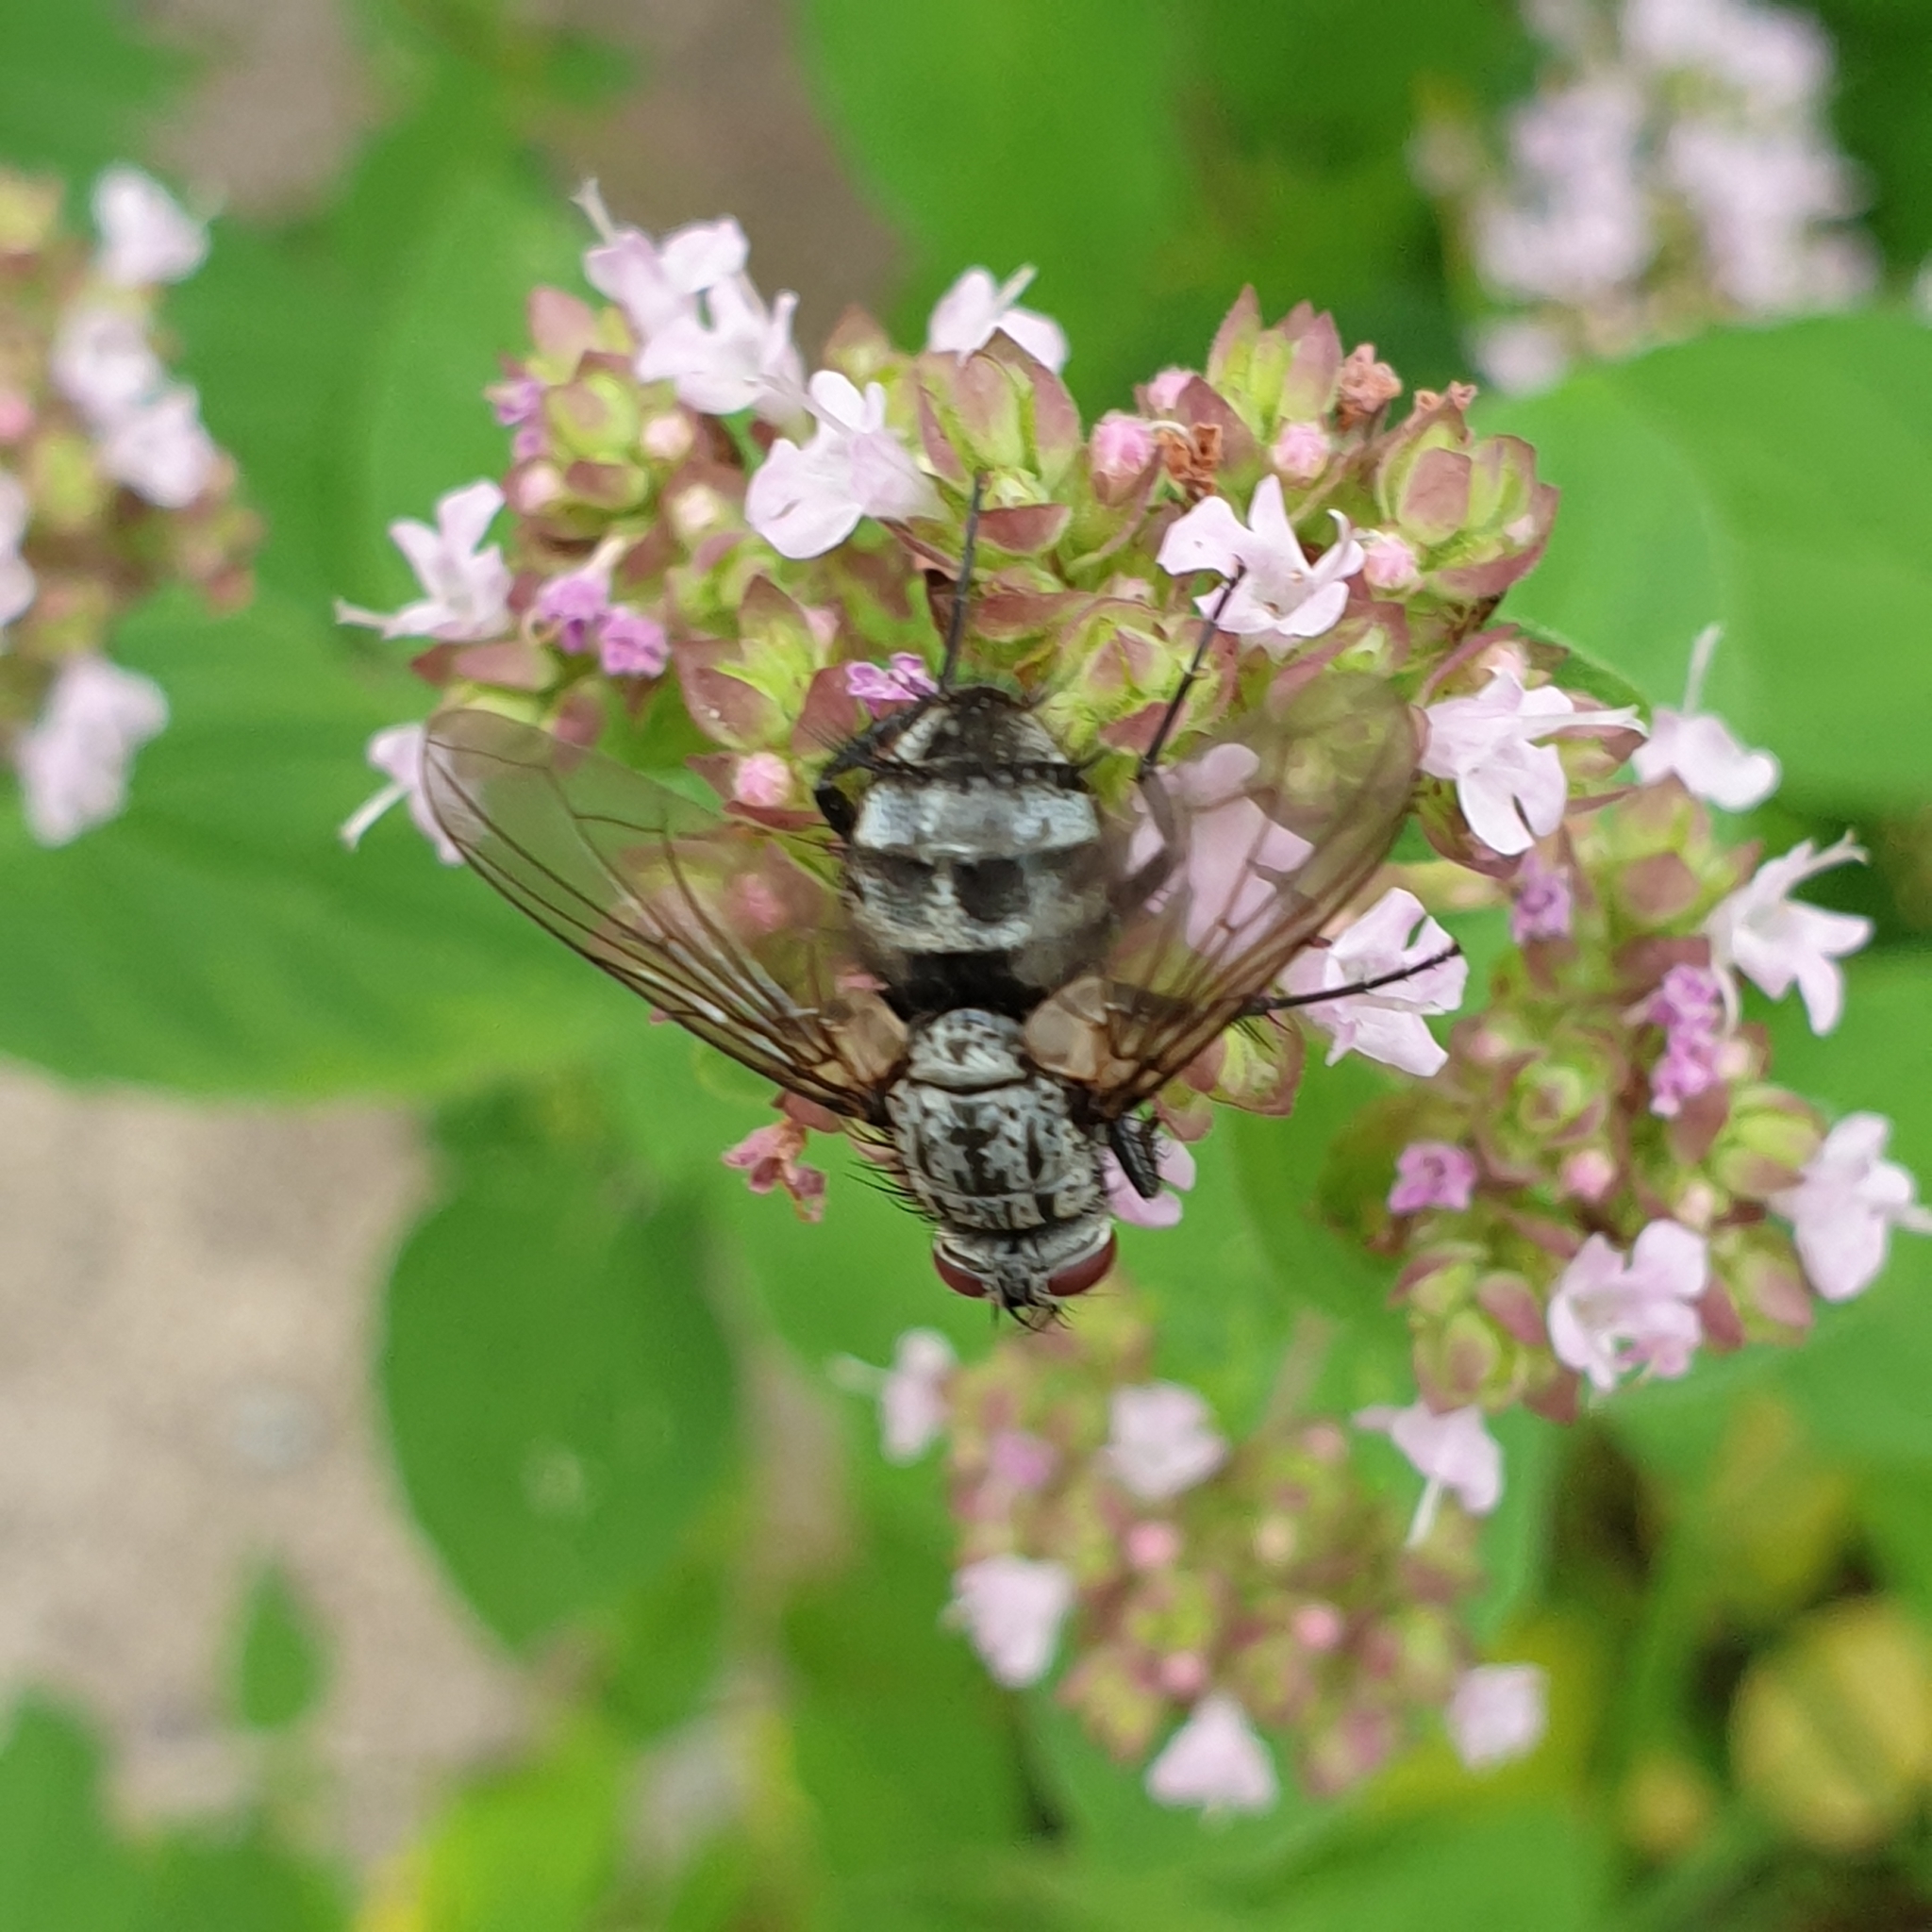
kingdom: Animalia
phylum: Arthropoda
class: Insecta
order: Diptera
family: Tachinidae
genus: Dinera
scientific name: Dinera ferina
